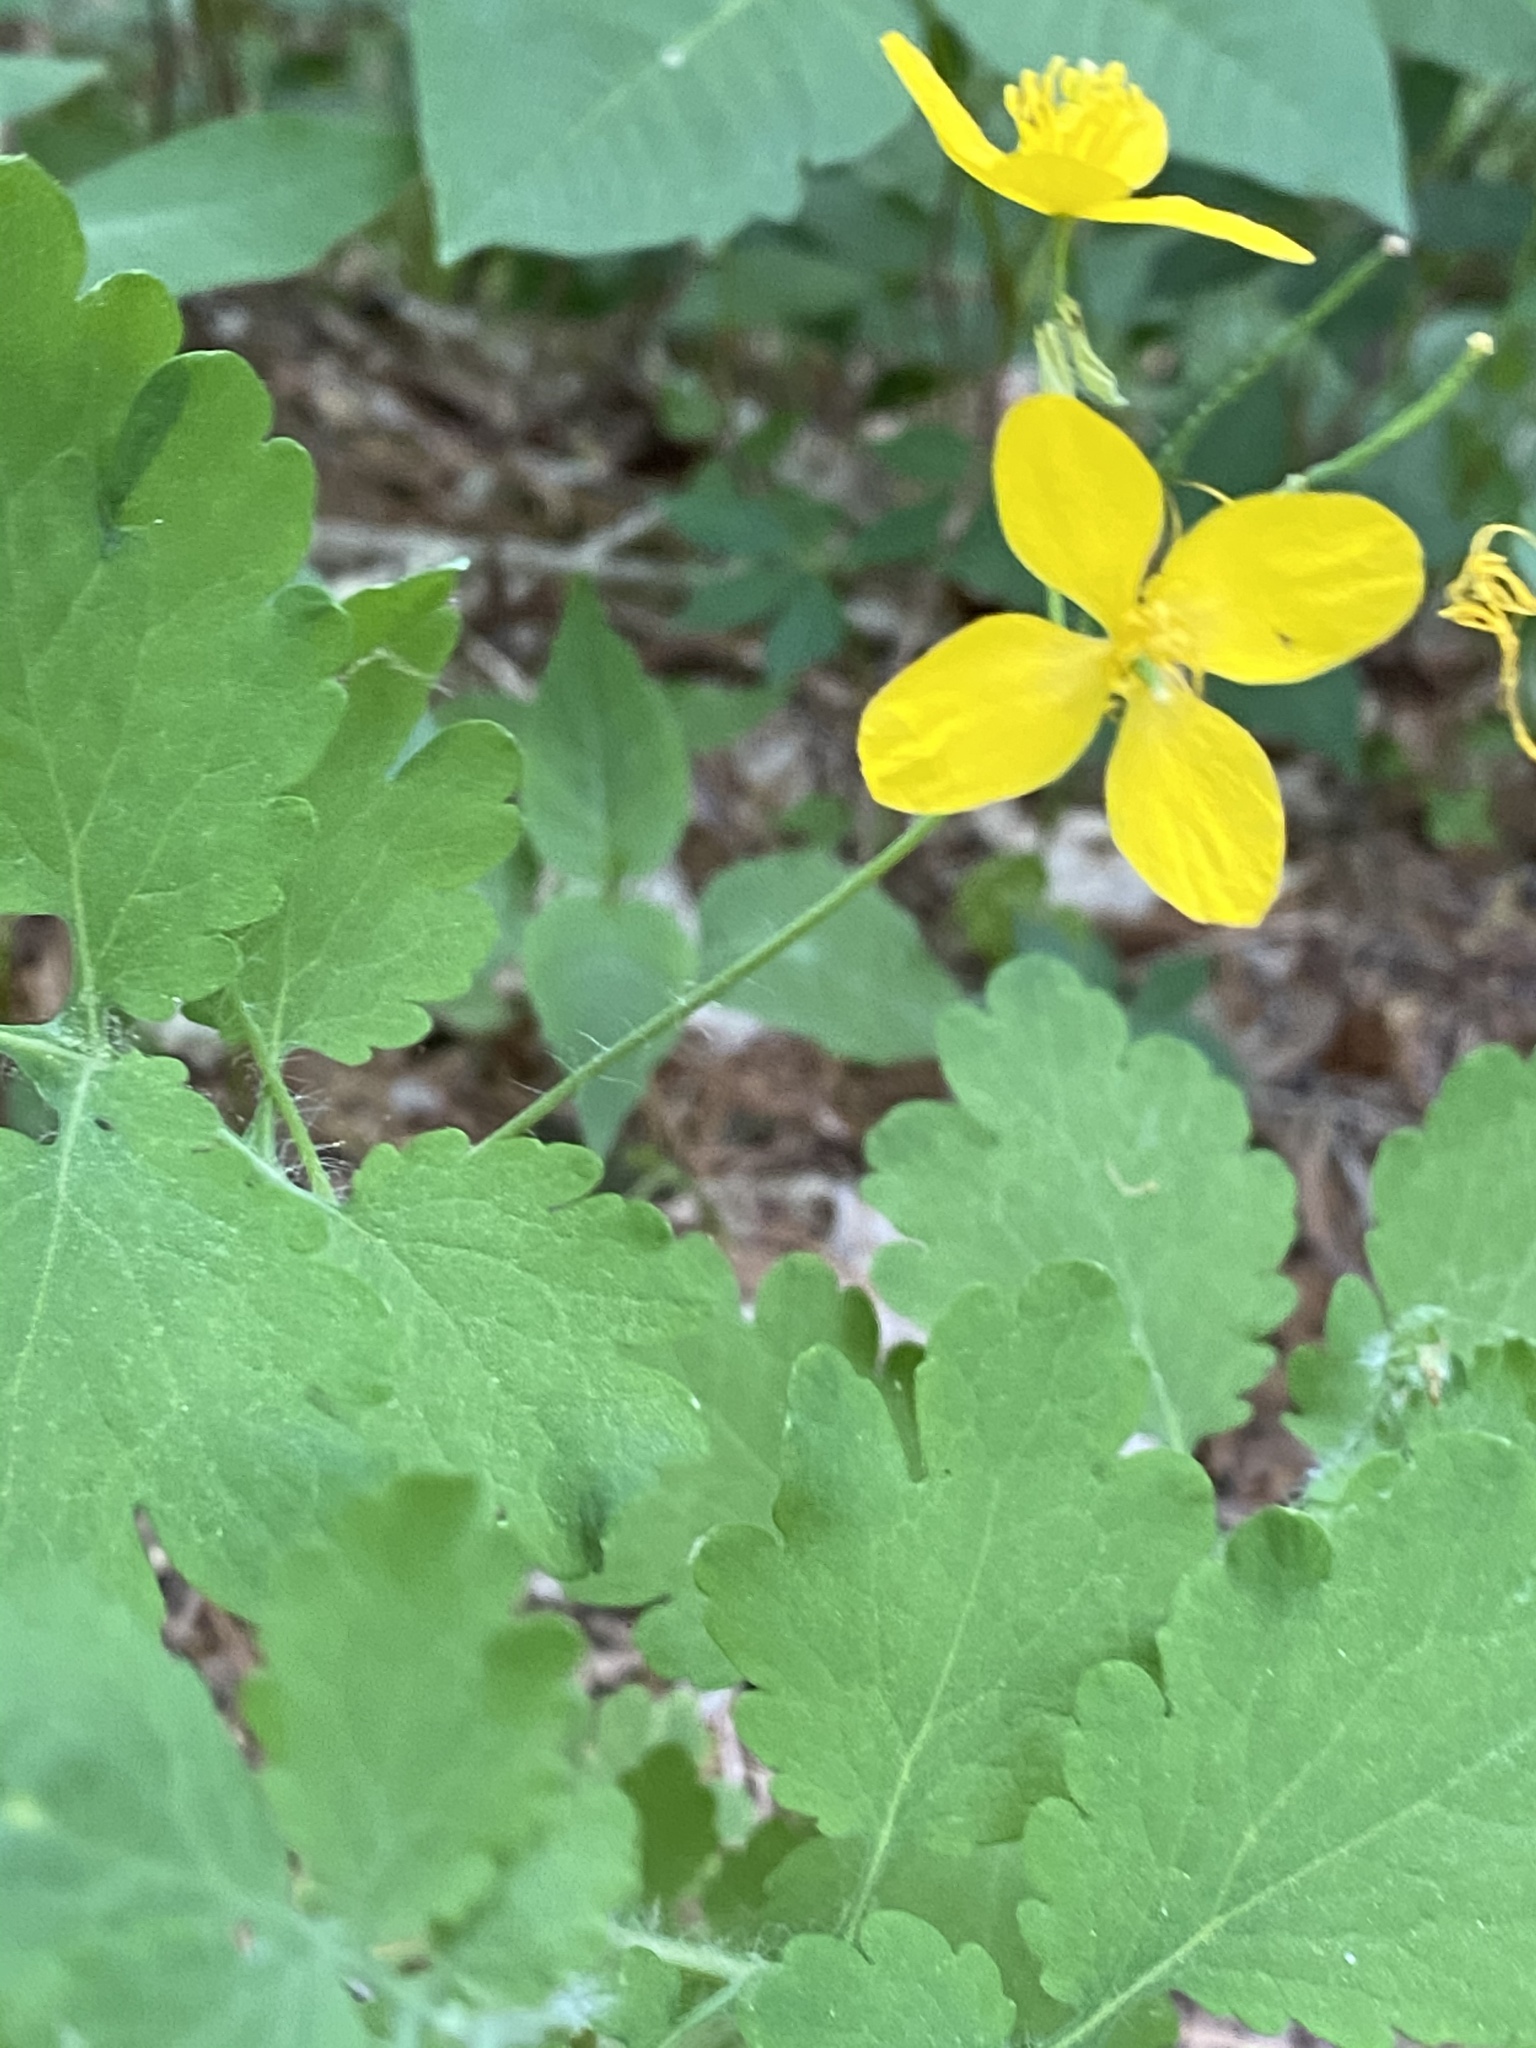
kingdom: Plantae
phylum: Tracheophyta
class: Magnoliopsida
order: Ranunculales
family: Papaveraceae
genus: Chelidonium
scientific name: Chelidonium majus
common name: Greater celandine
